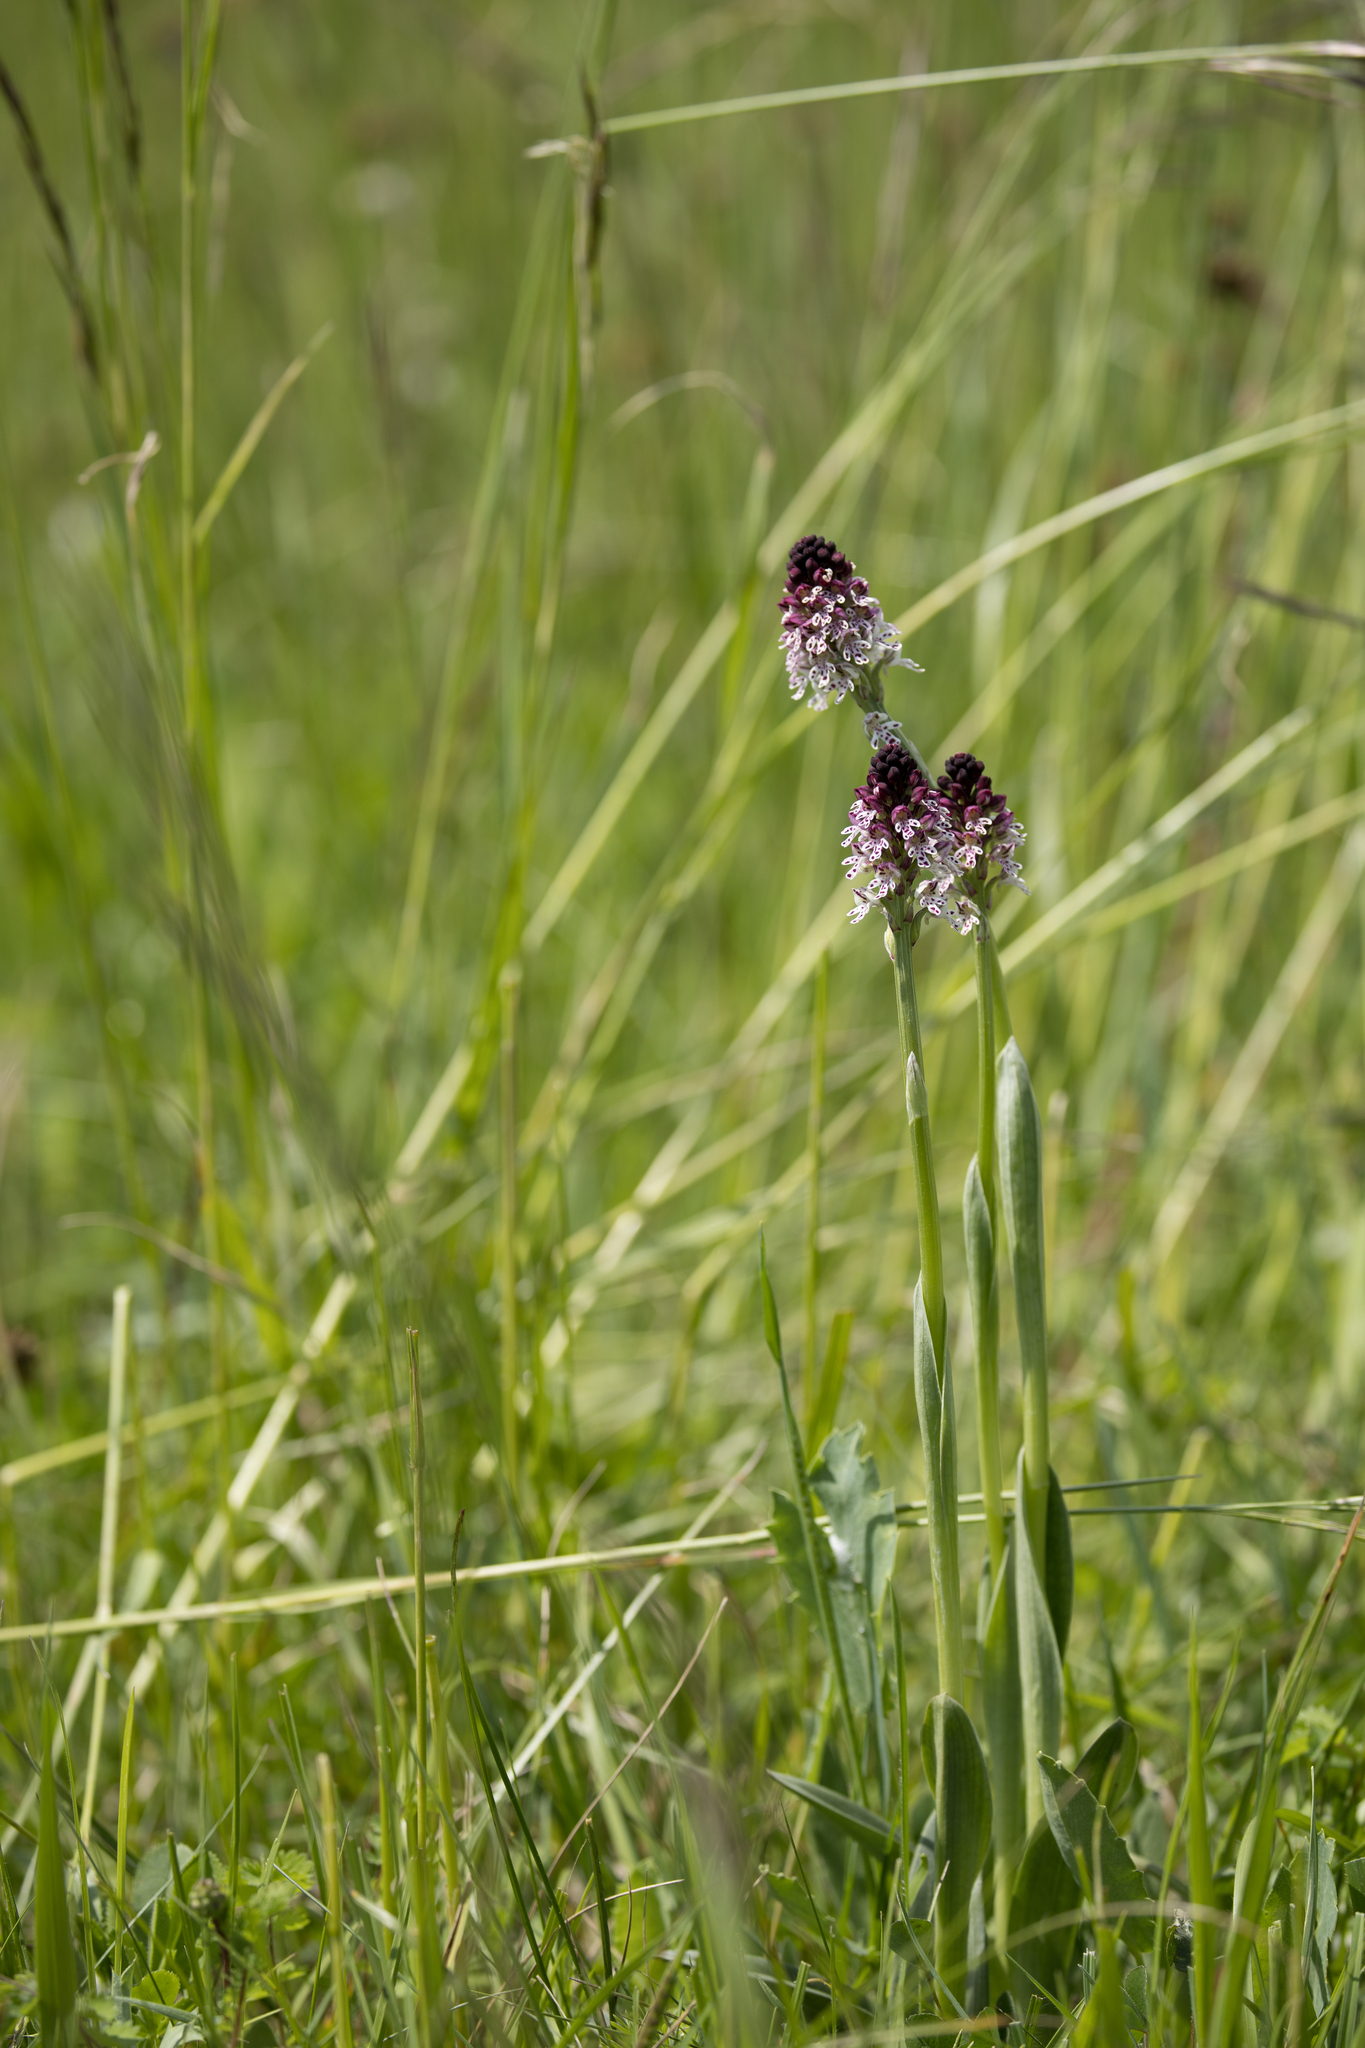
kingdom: Plantae
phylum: Tracheophyta
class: Liliopsida
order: Asparagales
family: Orchidaceae
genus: Neotinea
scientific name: Neotinea ustulata
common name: Burnt orchid
